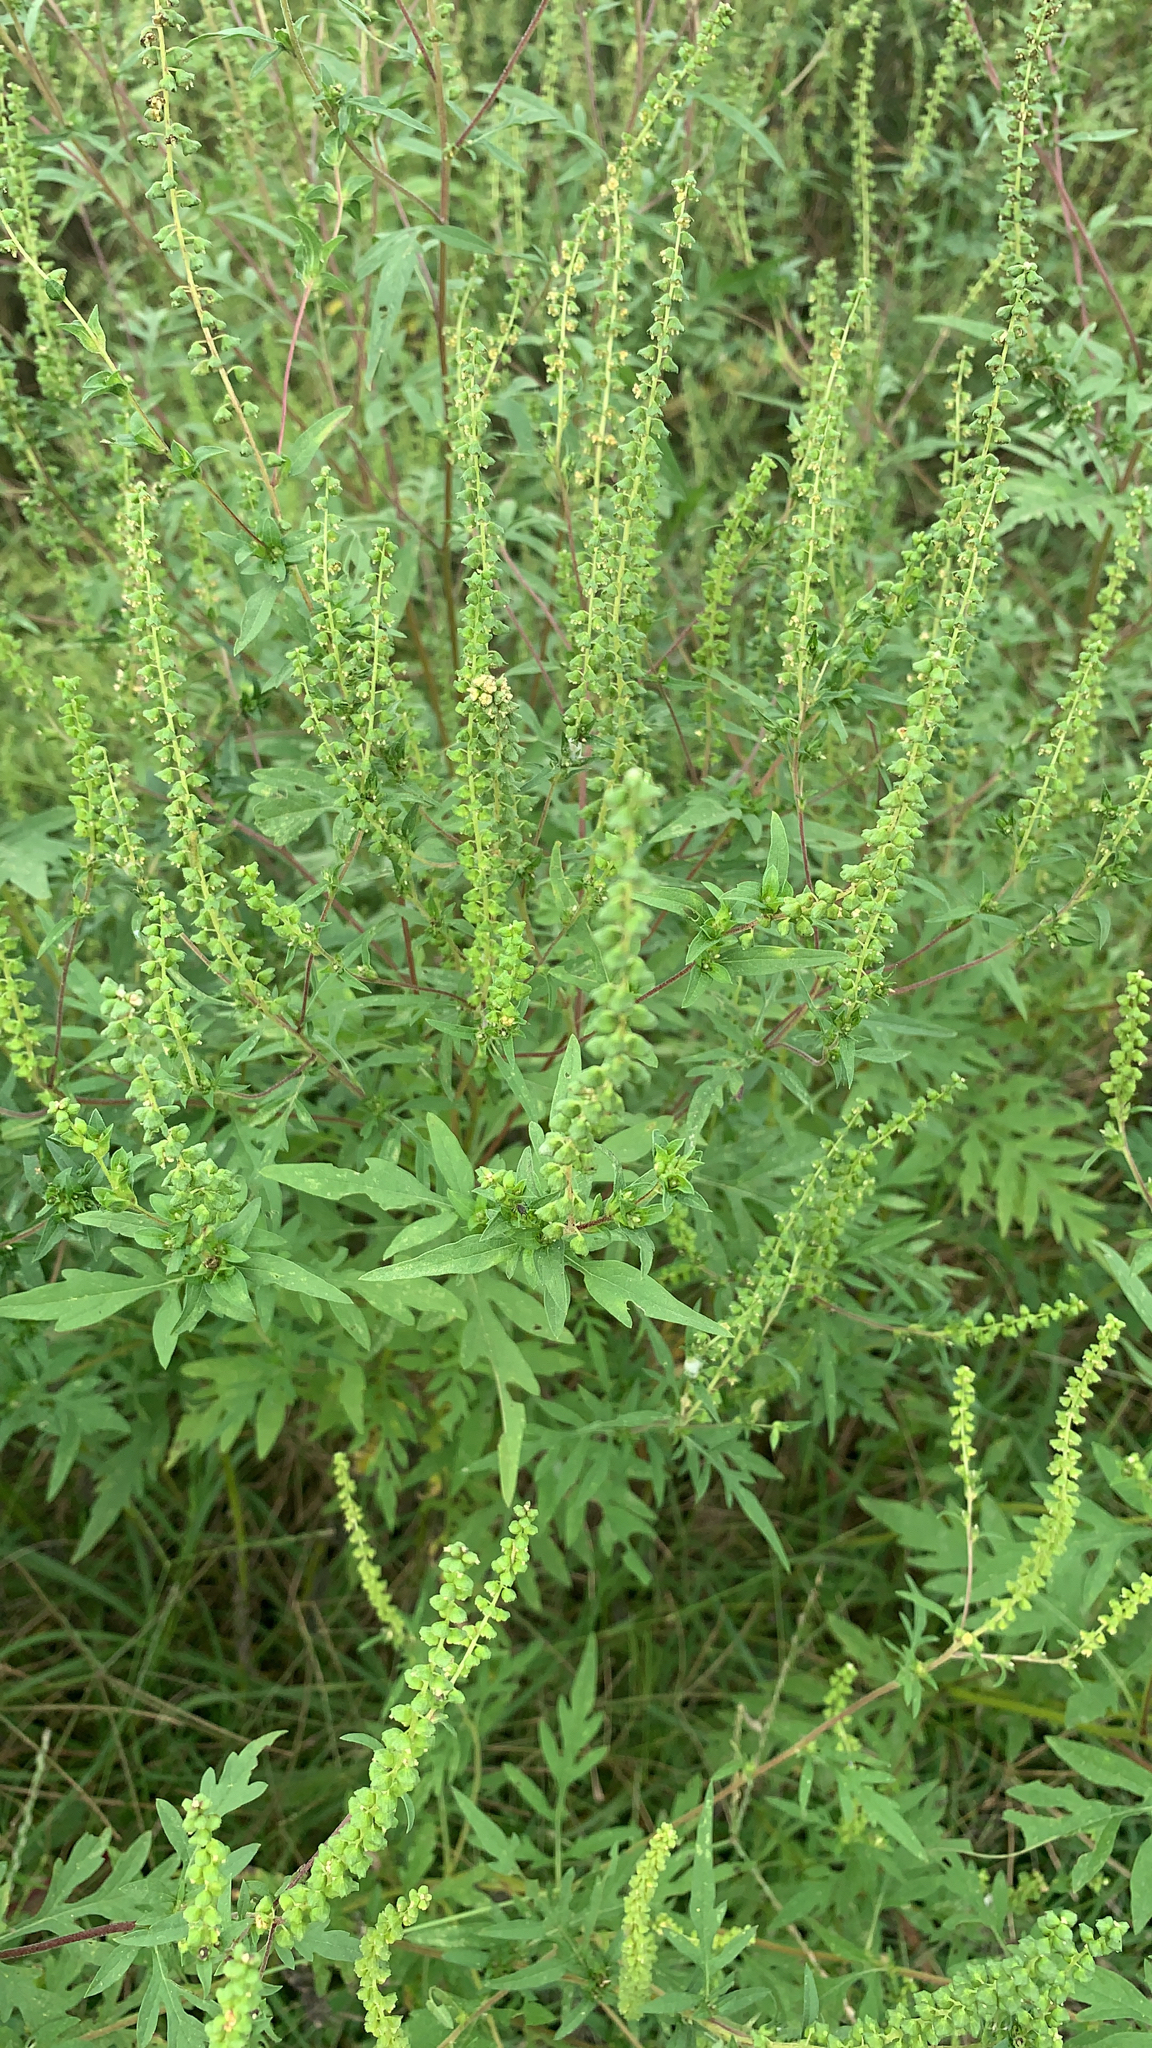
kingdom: Plantae
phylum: Tracheophyta
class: Magnoliopsida
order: Asterales
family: Asteraceae
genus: Ambrosia
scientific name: Ambrosia artemisiifolia
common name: Annual ragweed
